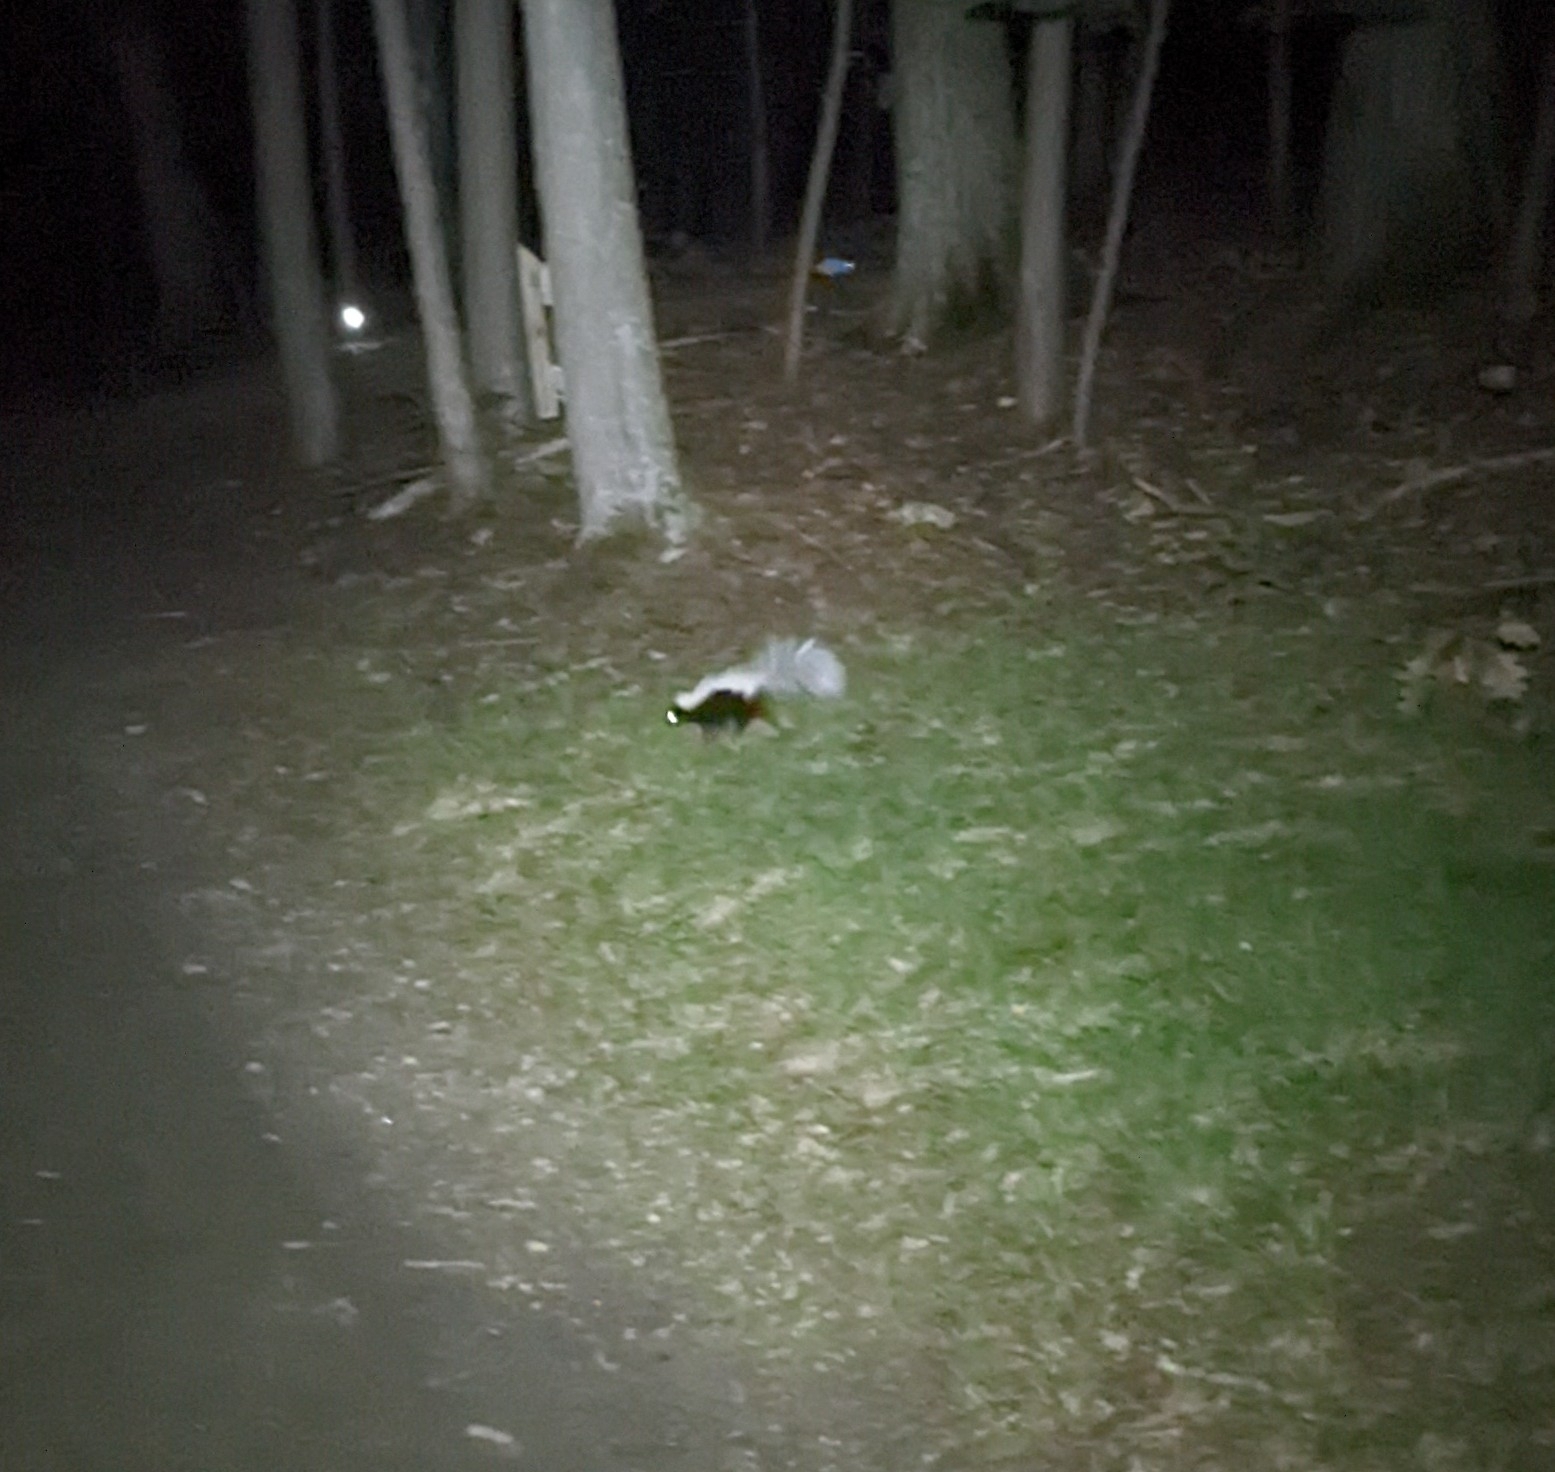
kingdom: Animalia
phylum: Chordata
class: Mammalia
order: Carnivora
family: Mephitidae
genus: Mephitis
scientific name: Mephitis mephitis
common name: Striped skunk
